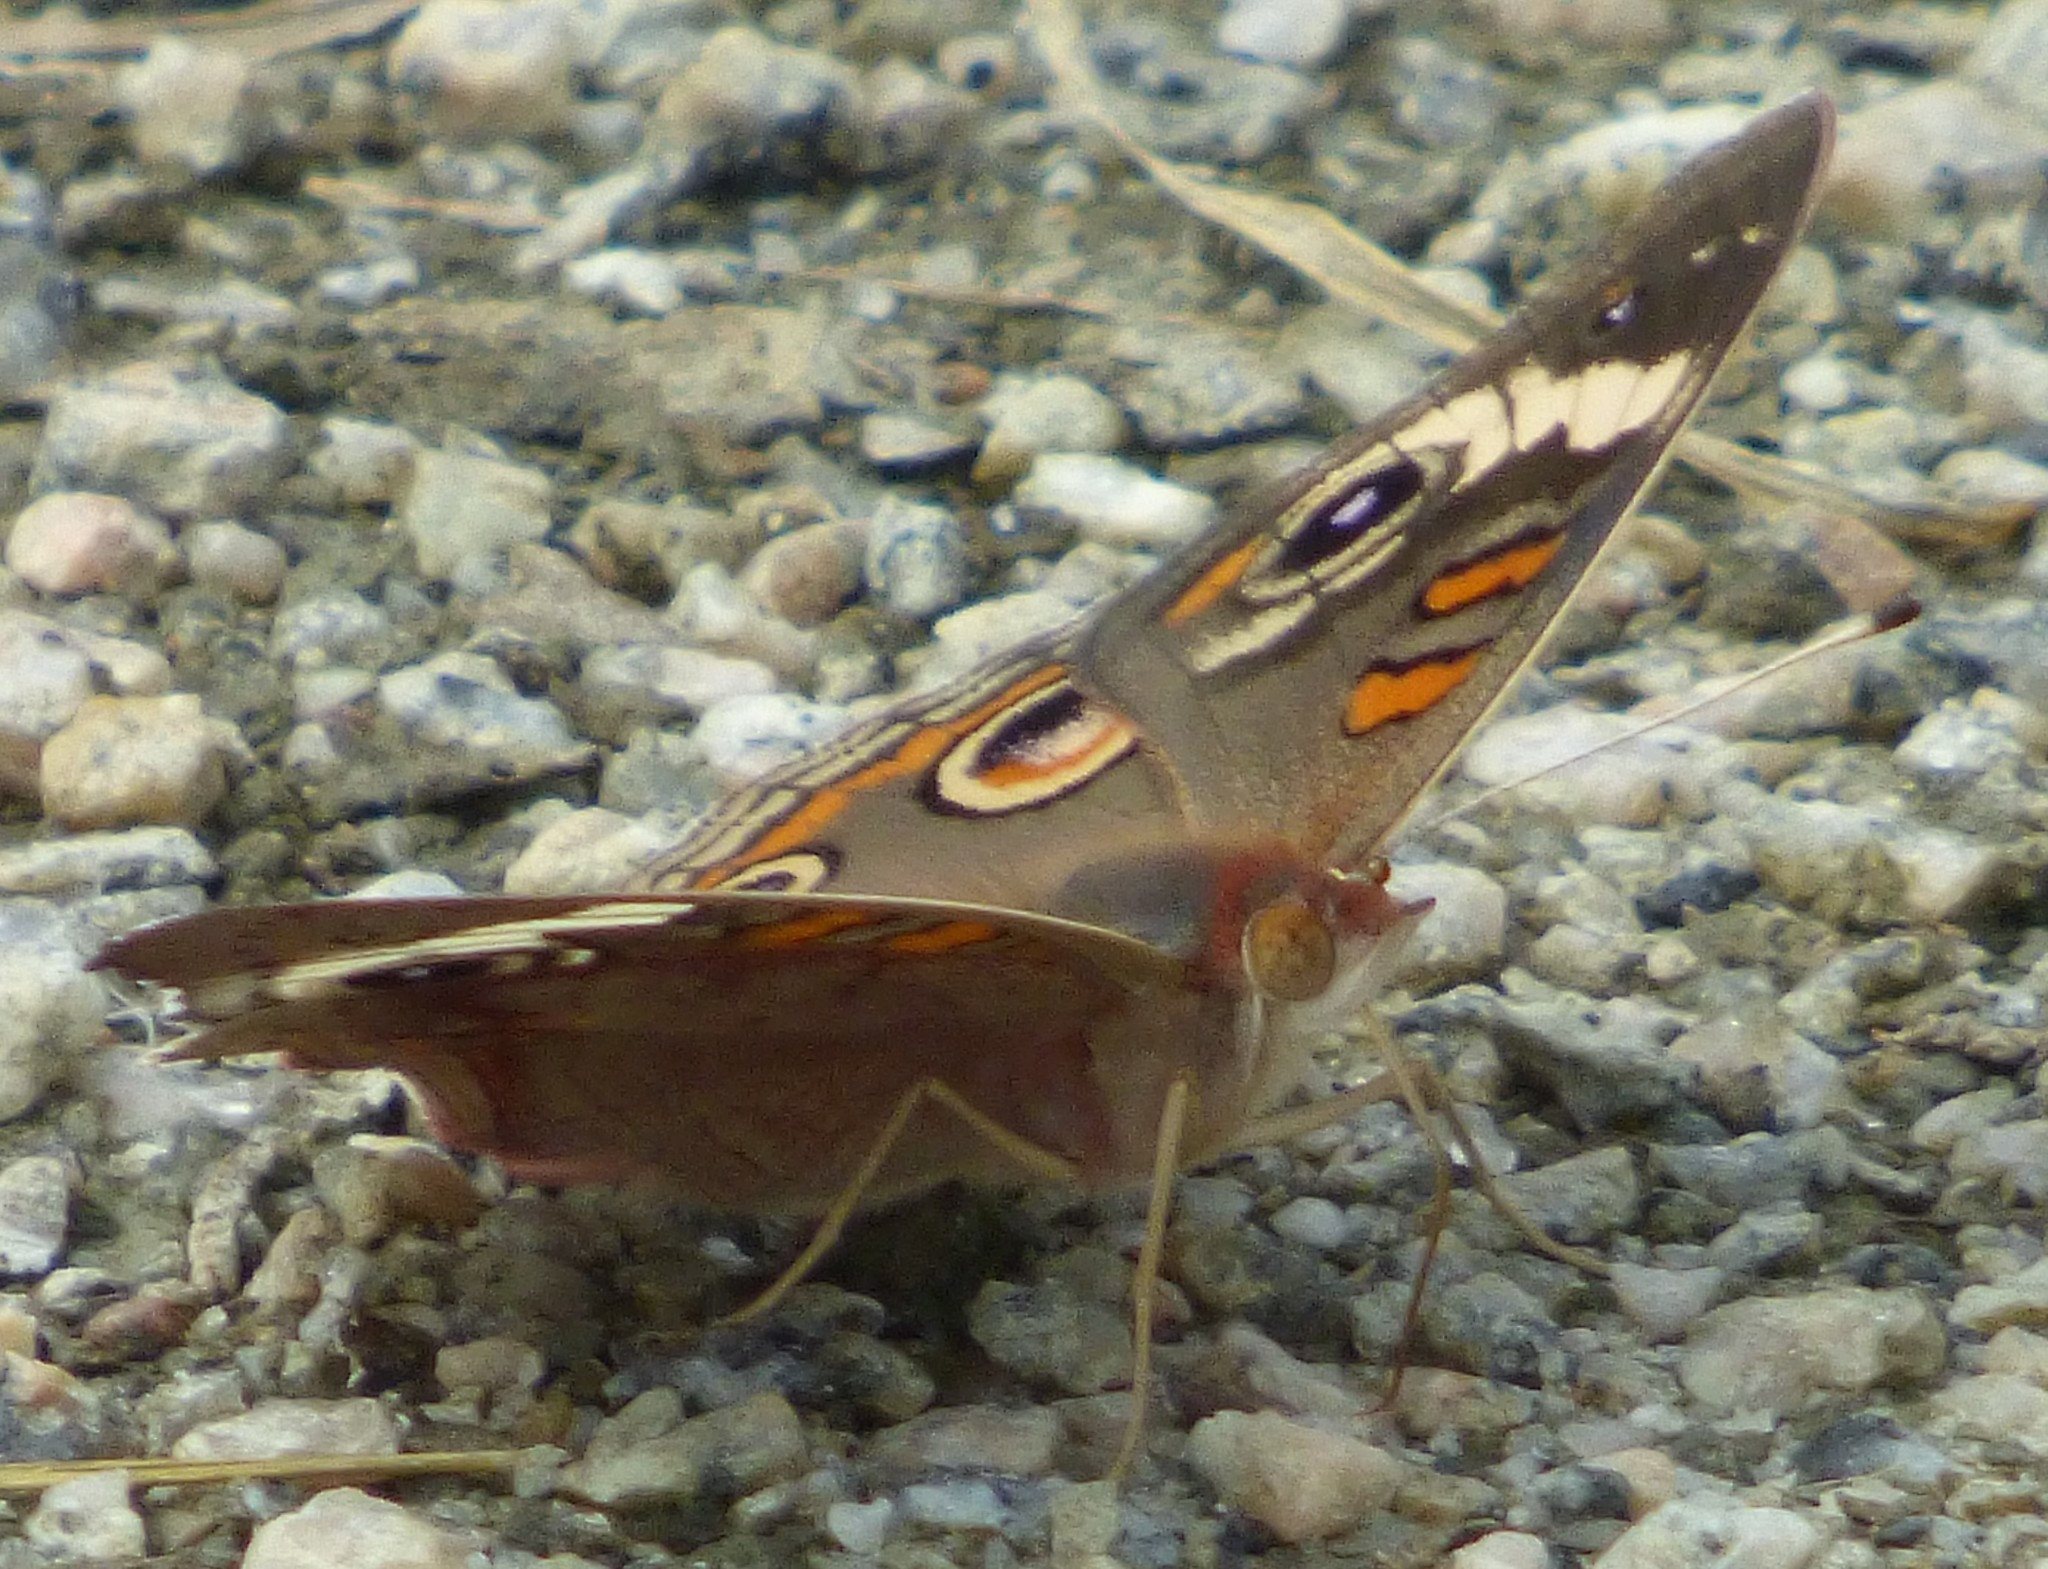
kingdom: Animalia
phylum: Arthropoda
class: Insecta
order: Lepidoptera
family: Nymphalidae
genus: Junonia
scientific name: Junonia coenia
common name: Common buckeye
